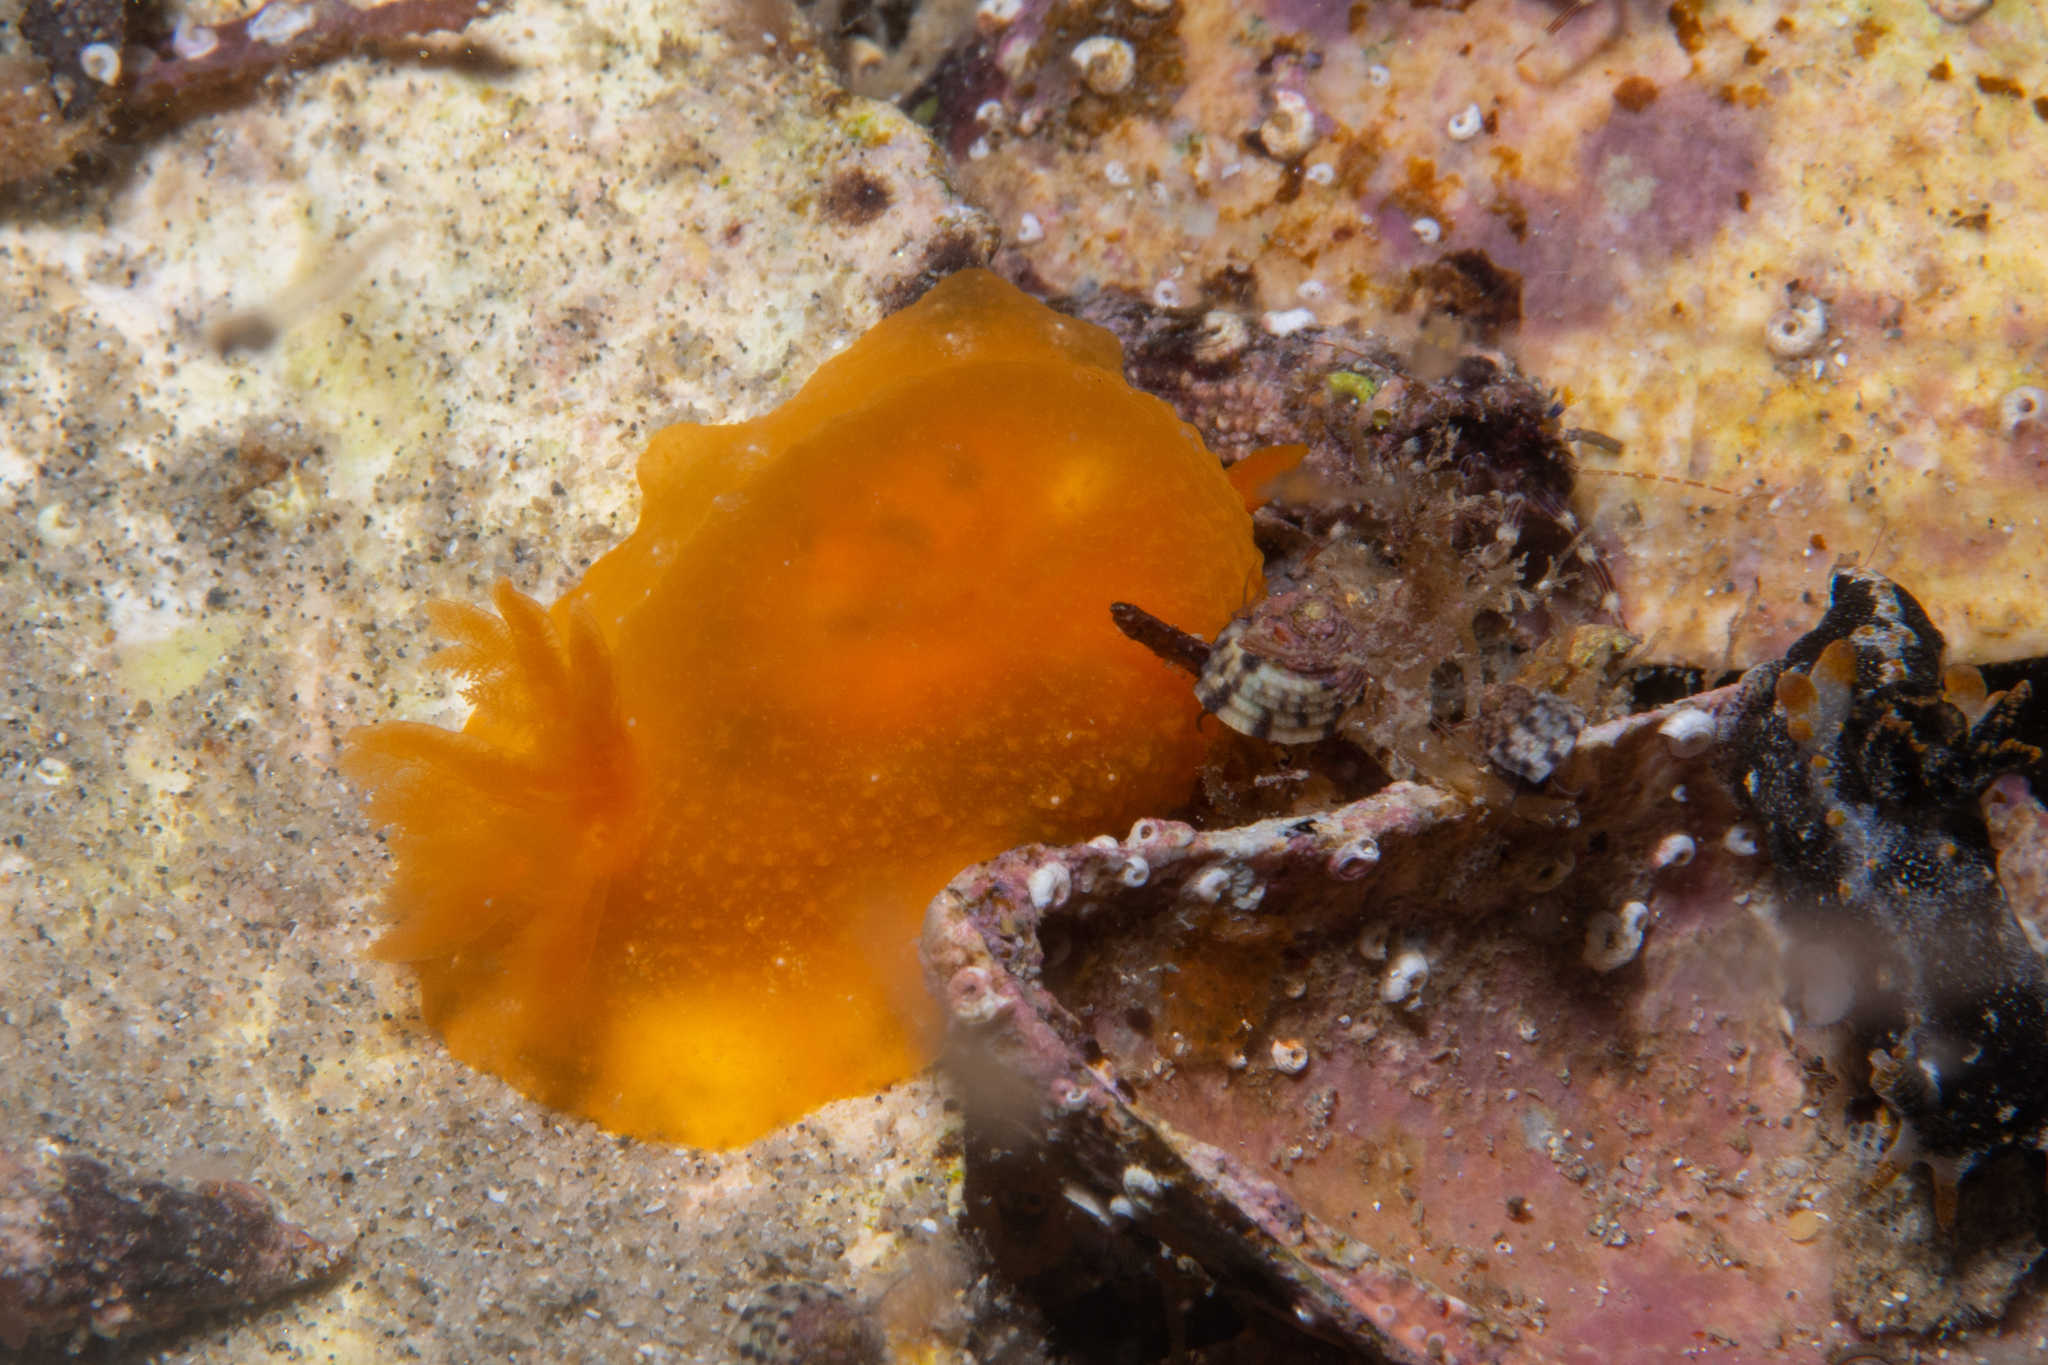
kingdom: Animalia
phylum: Mollusca
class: Gastropoda
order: Nudibranchia
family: Dendrodorididae
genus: Doriopsilla
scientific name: Doriopsilla aurea
